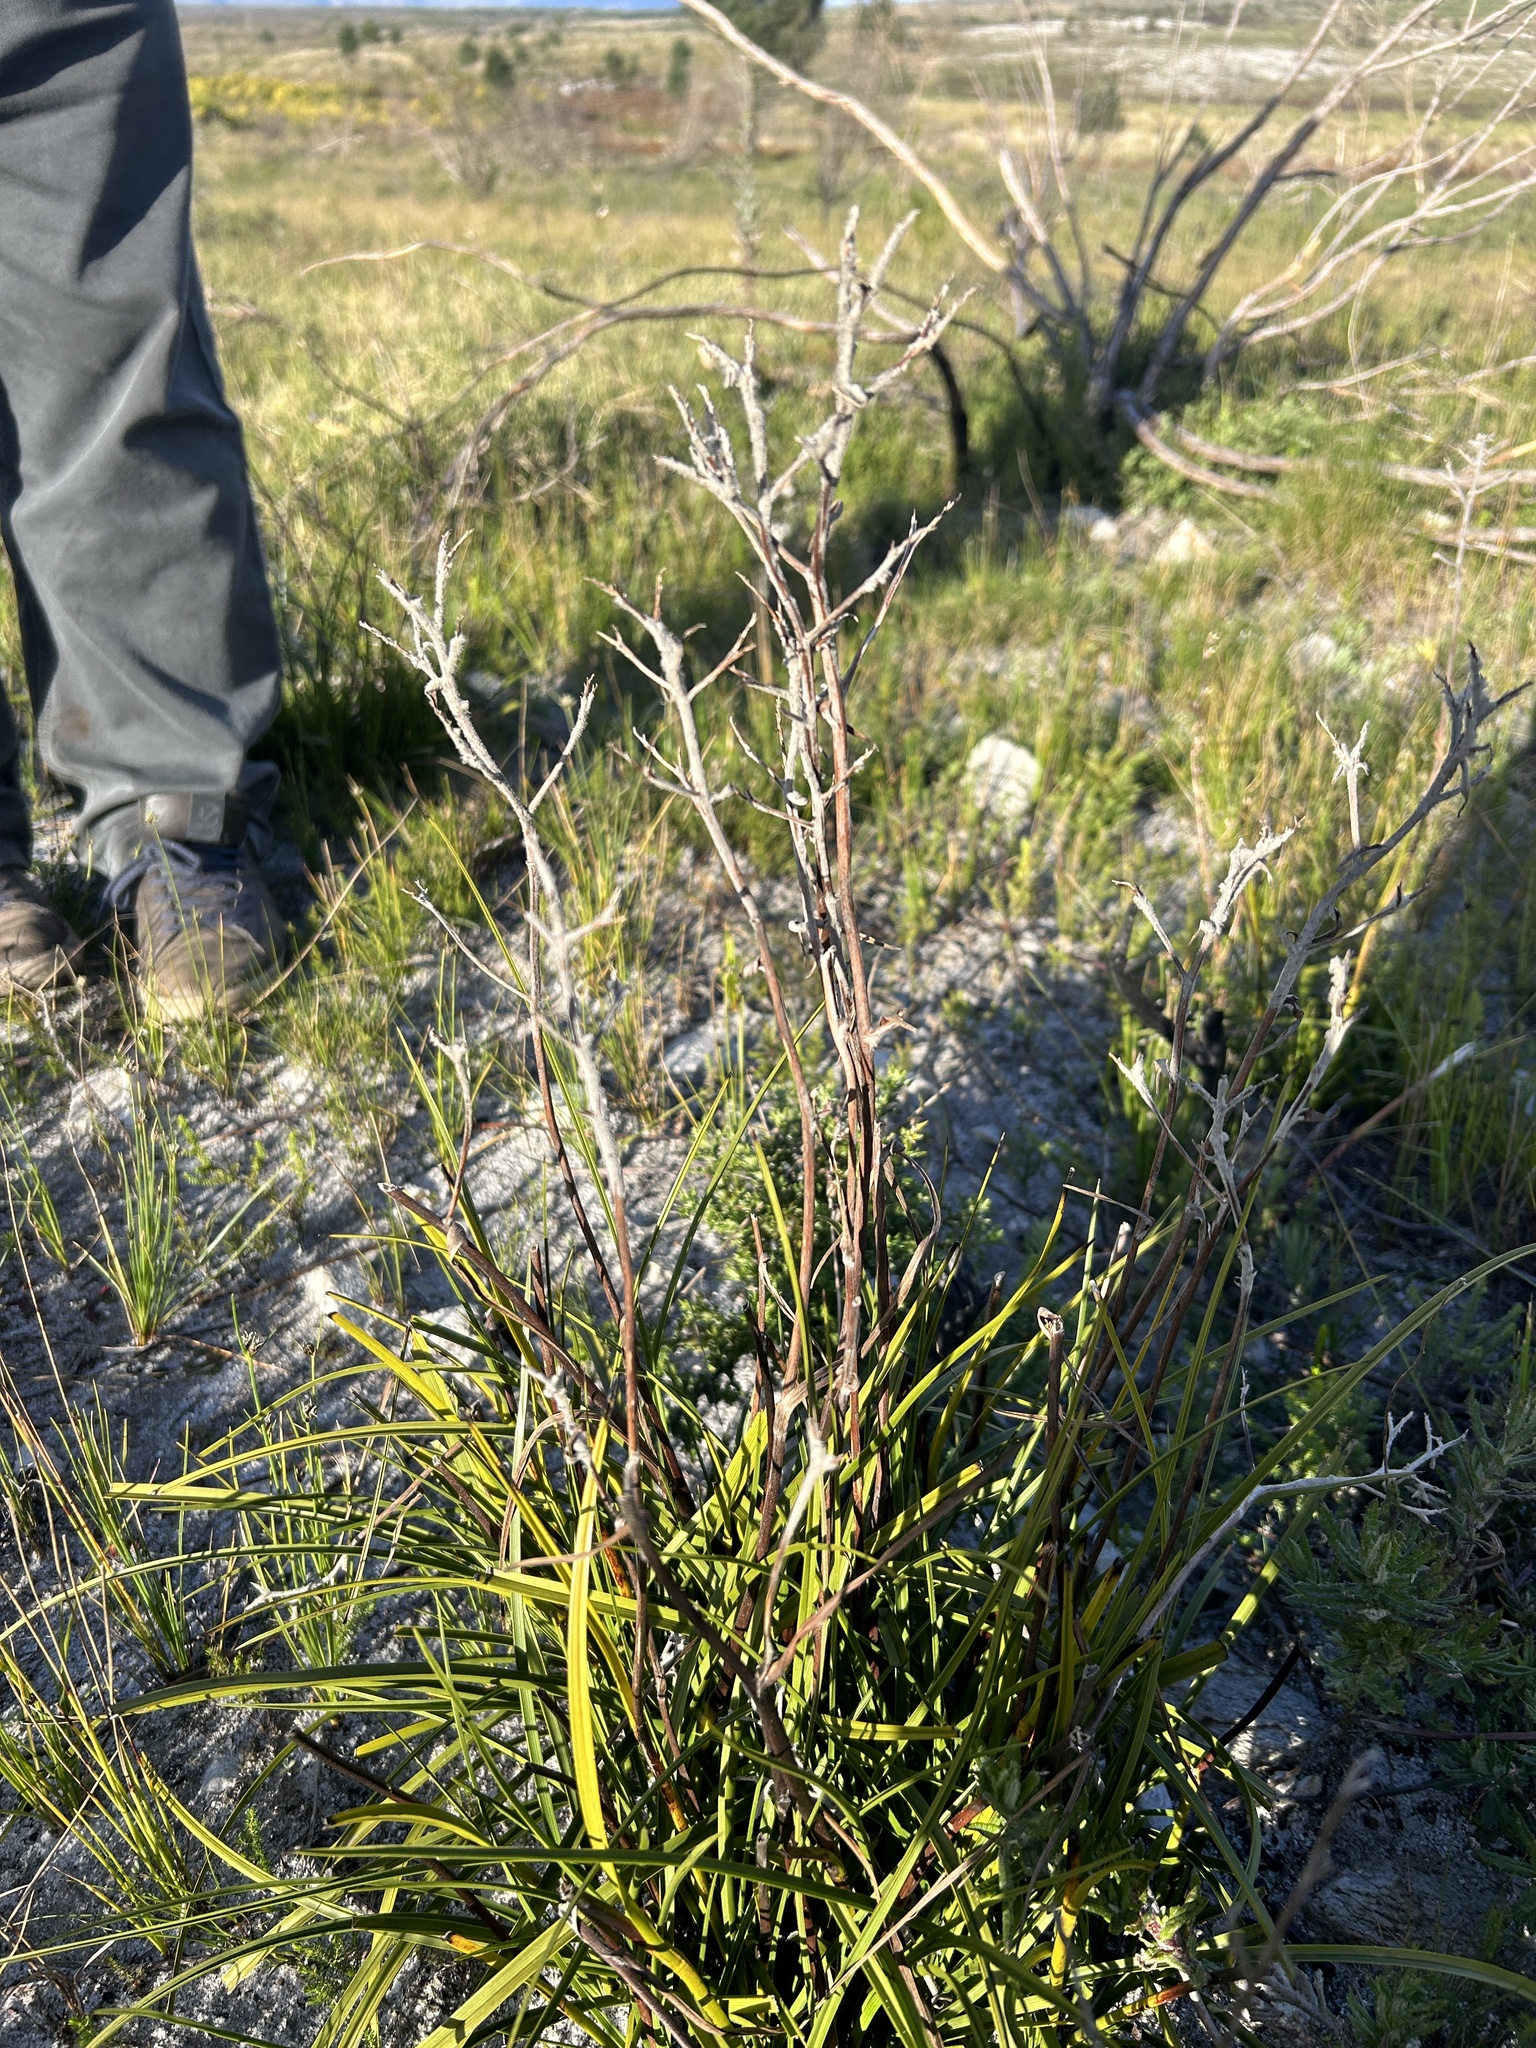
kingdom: Plantae
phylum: Tracheophyta
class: Liliopsida
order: Asparagales
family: Lanariaceae
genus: Lanaria
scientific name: Lanaria lanata
